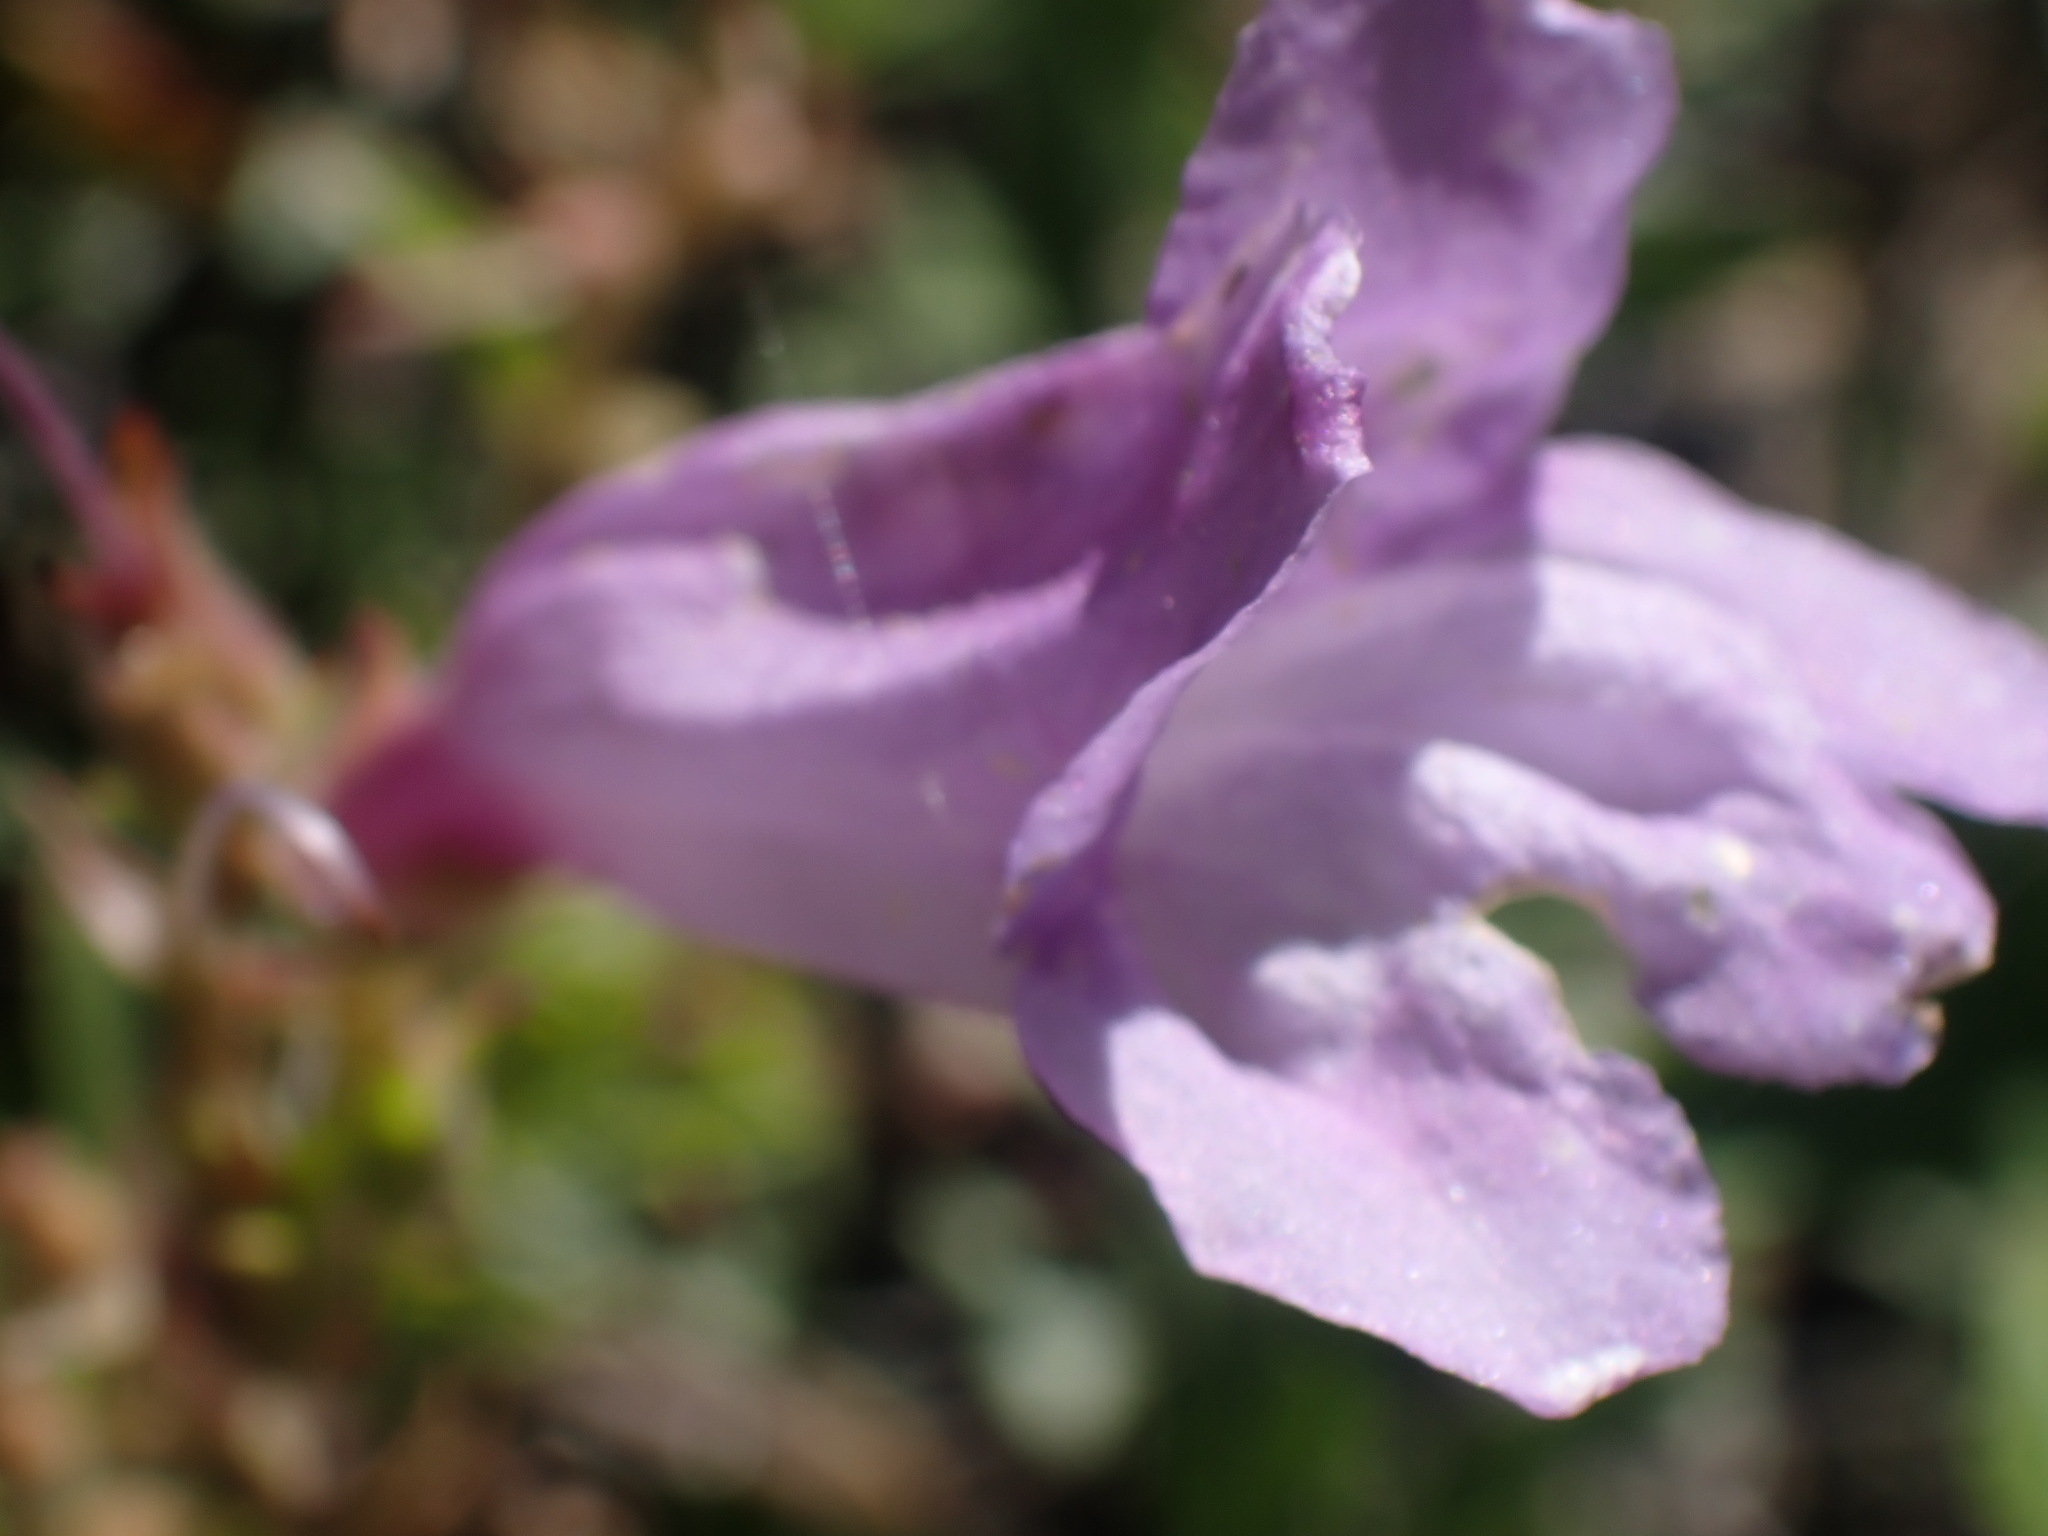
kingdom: Plantae
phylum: Tracheophyta
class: Magnoliopsida
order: Lamiales
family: Plantaginaceae
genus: Penstemon
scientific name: Penstemon fruticosus
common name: Bush penstemon
